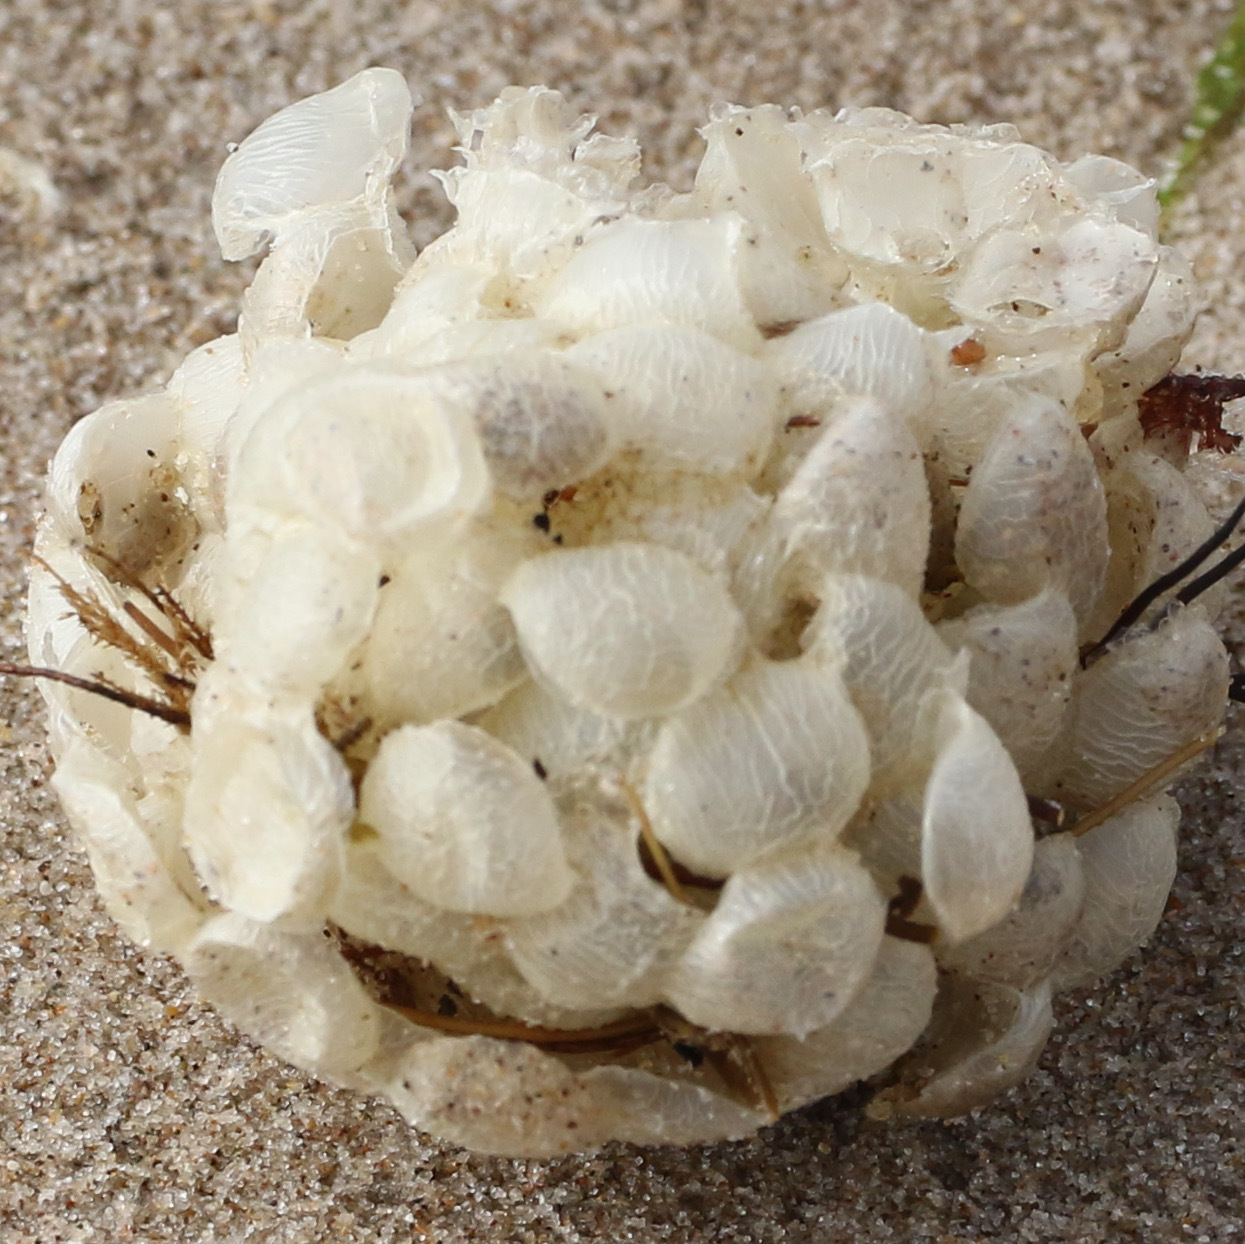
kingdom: Animalia
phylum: Mollusca
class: Gastropoda
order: Neogastropoda
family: Buccinidae
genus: Buccinum
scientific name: Buccinum undatum
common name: Common whelk
